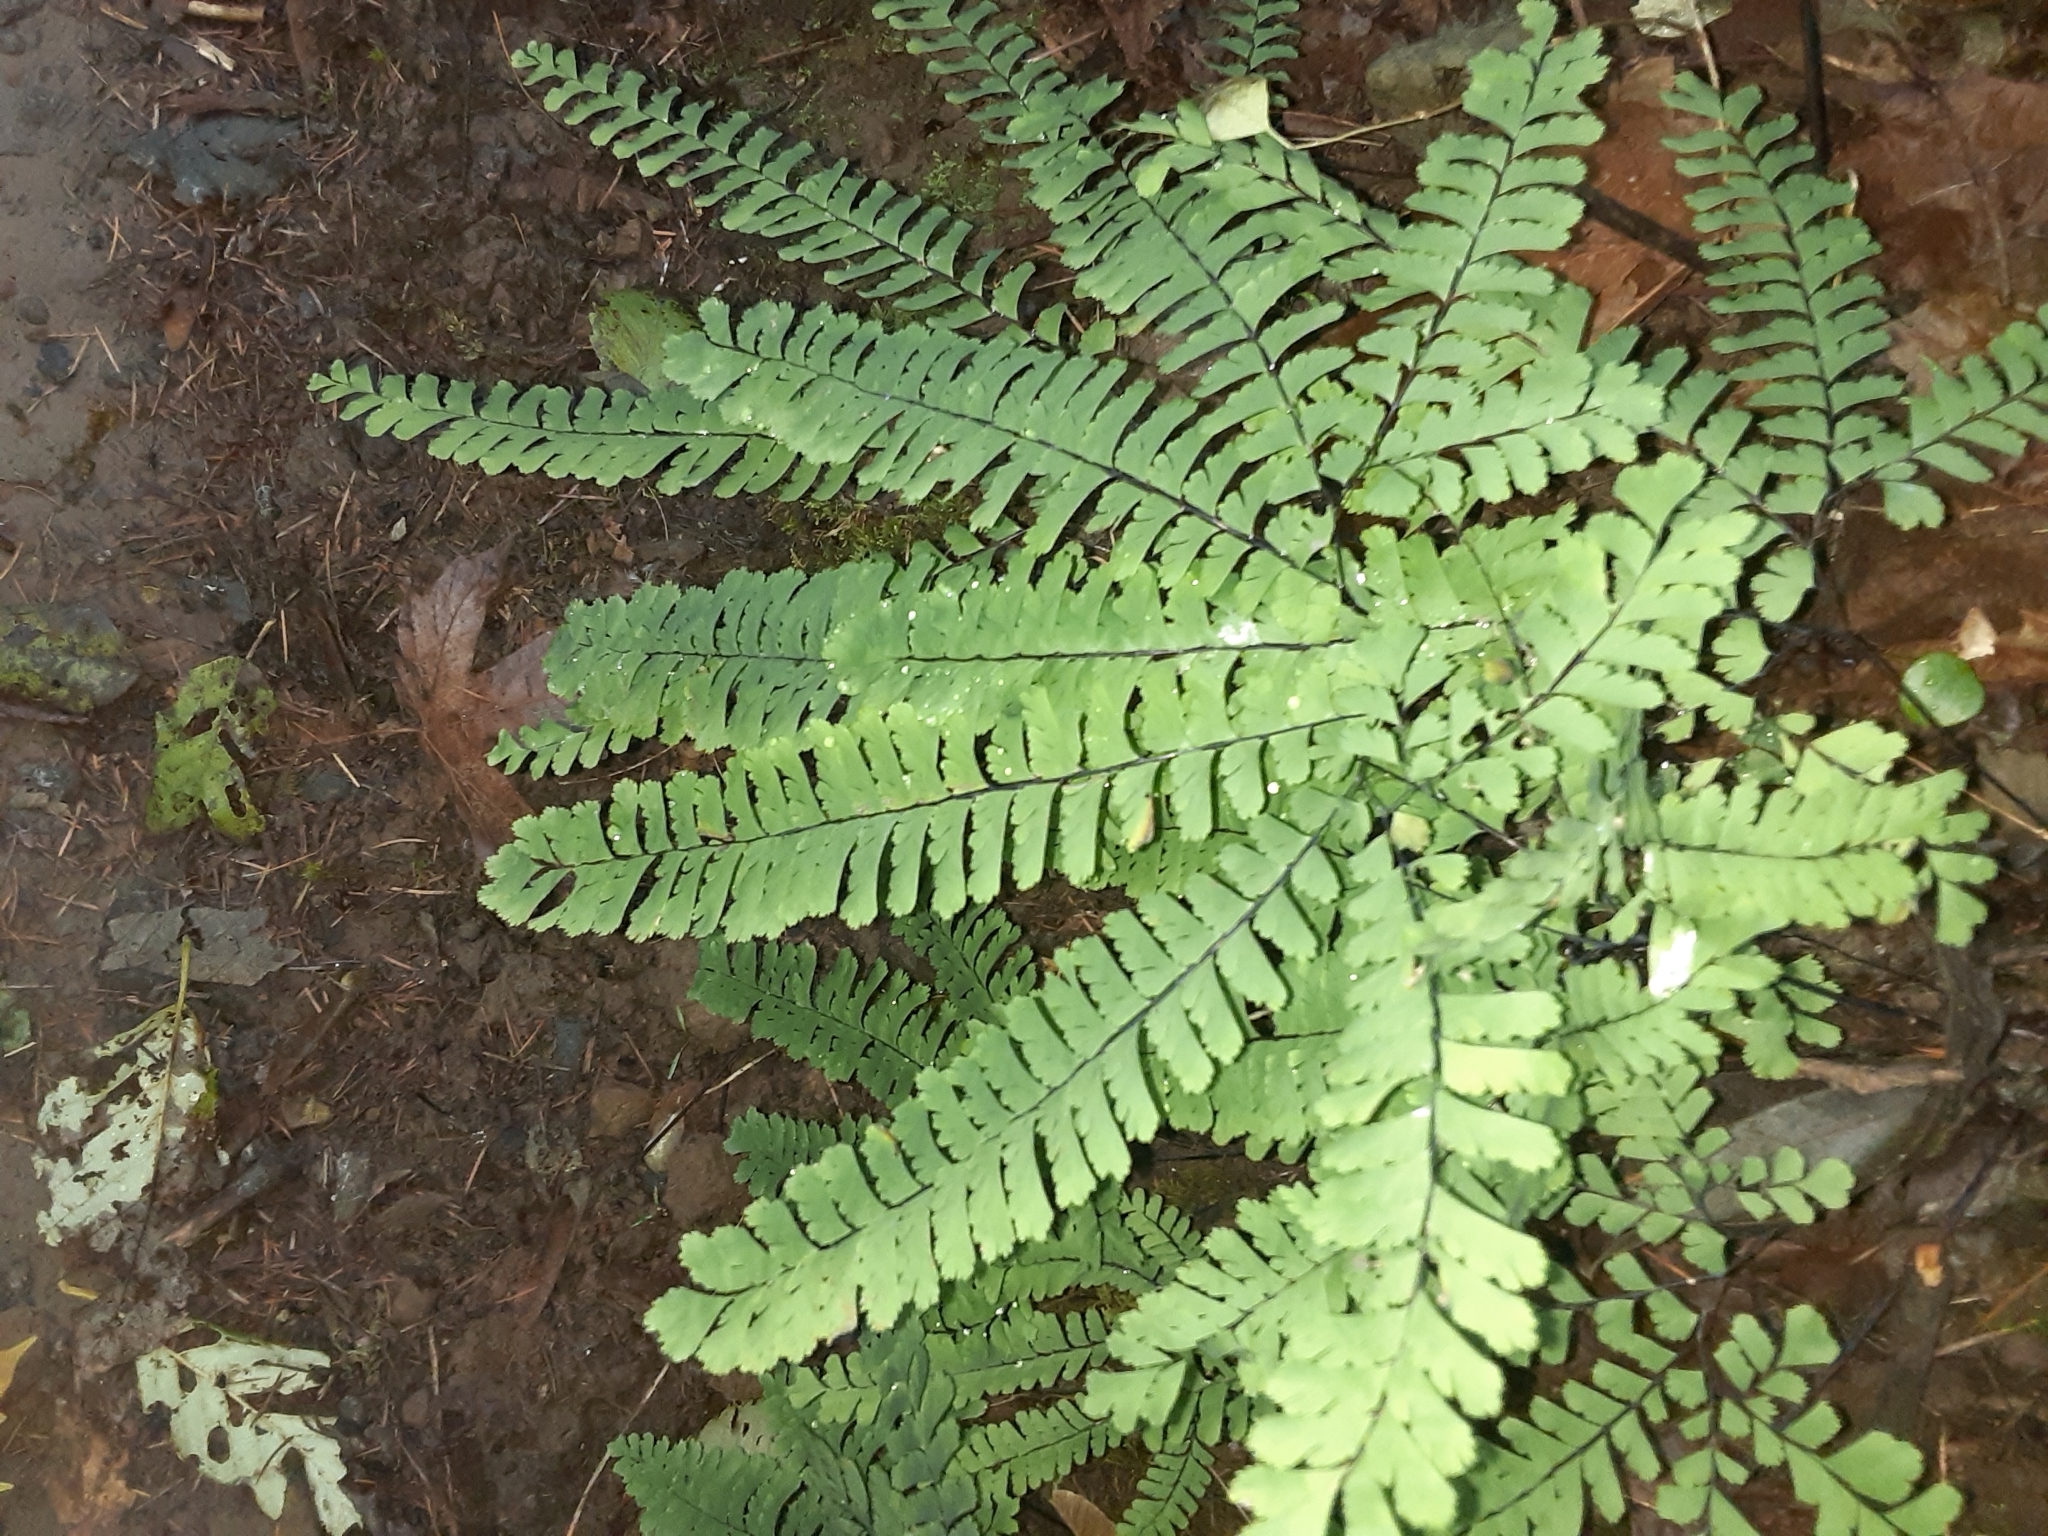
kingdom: Plantae
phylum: Tracheophyta
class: Polypodiopsida
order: Polypodiales
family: Pteridaceae
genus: Adiantum
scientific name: Adiantum aleuticum
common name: Aleutian maidenhair fern
